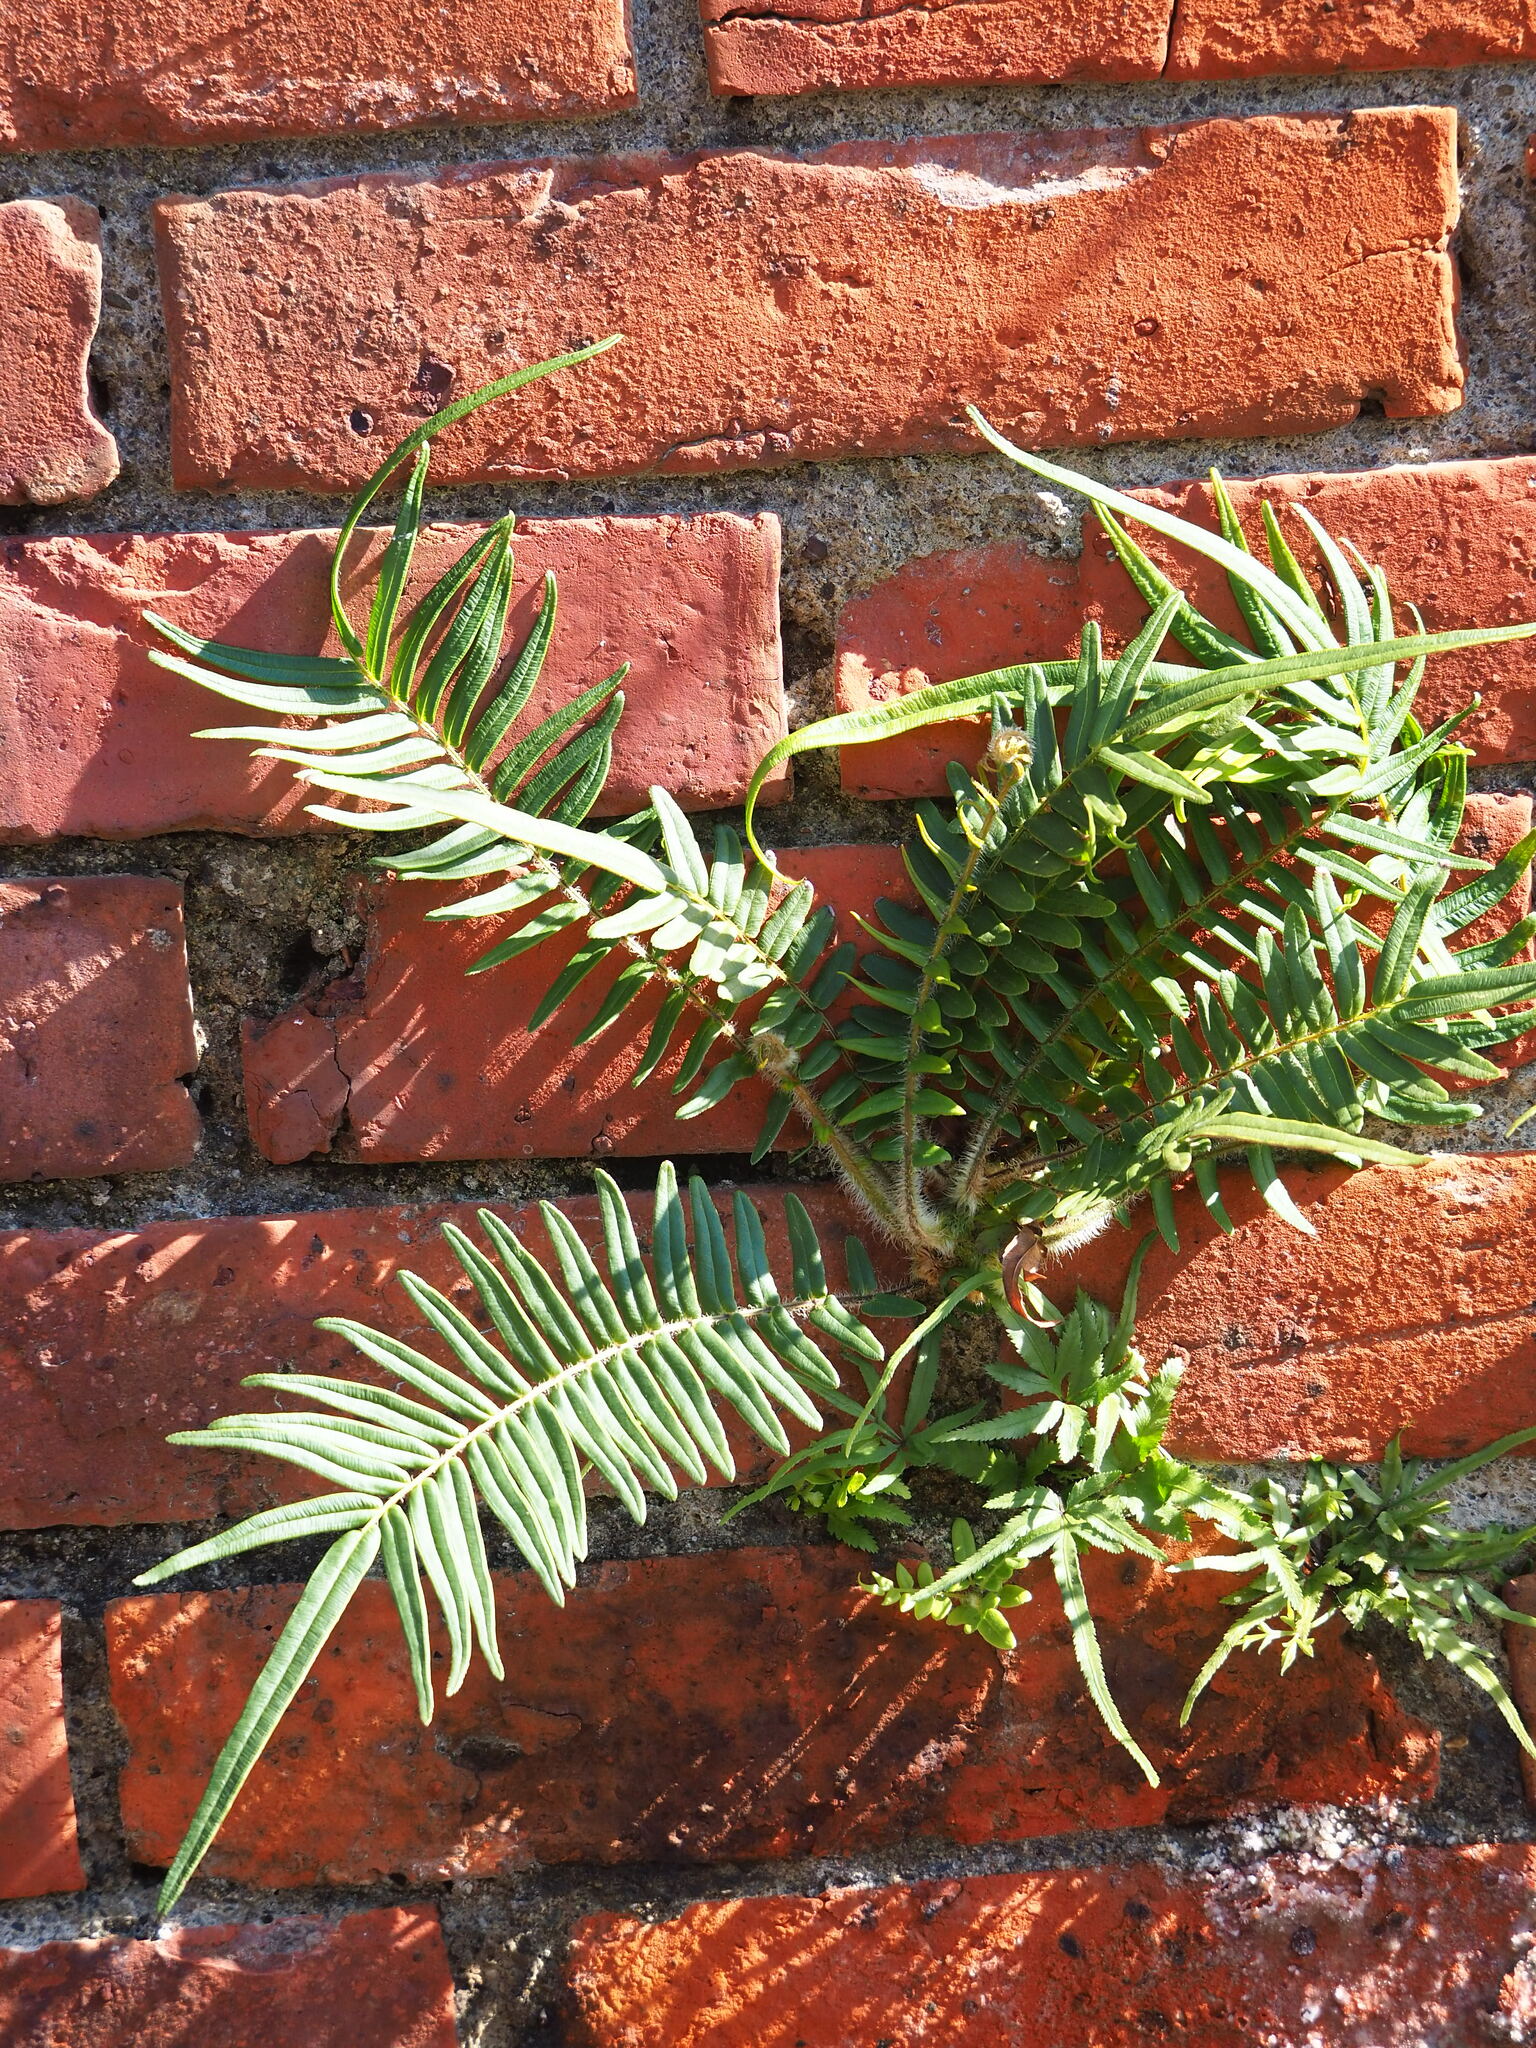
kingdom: Plantae
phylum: Tracheophyta
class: Polypodiopsida
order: Polypodiales
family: Pteridaceae
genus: Pteris
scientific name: Pteris vittata
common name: Ladder brake
